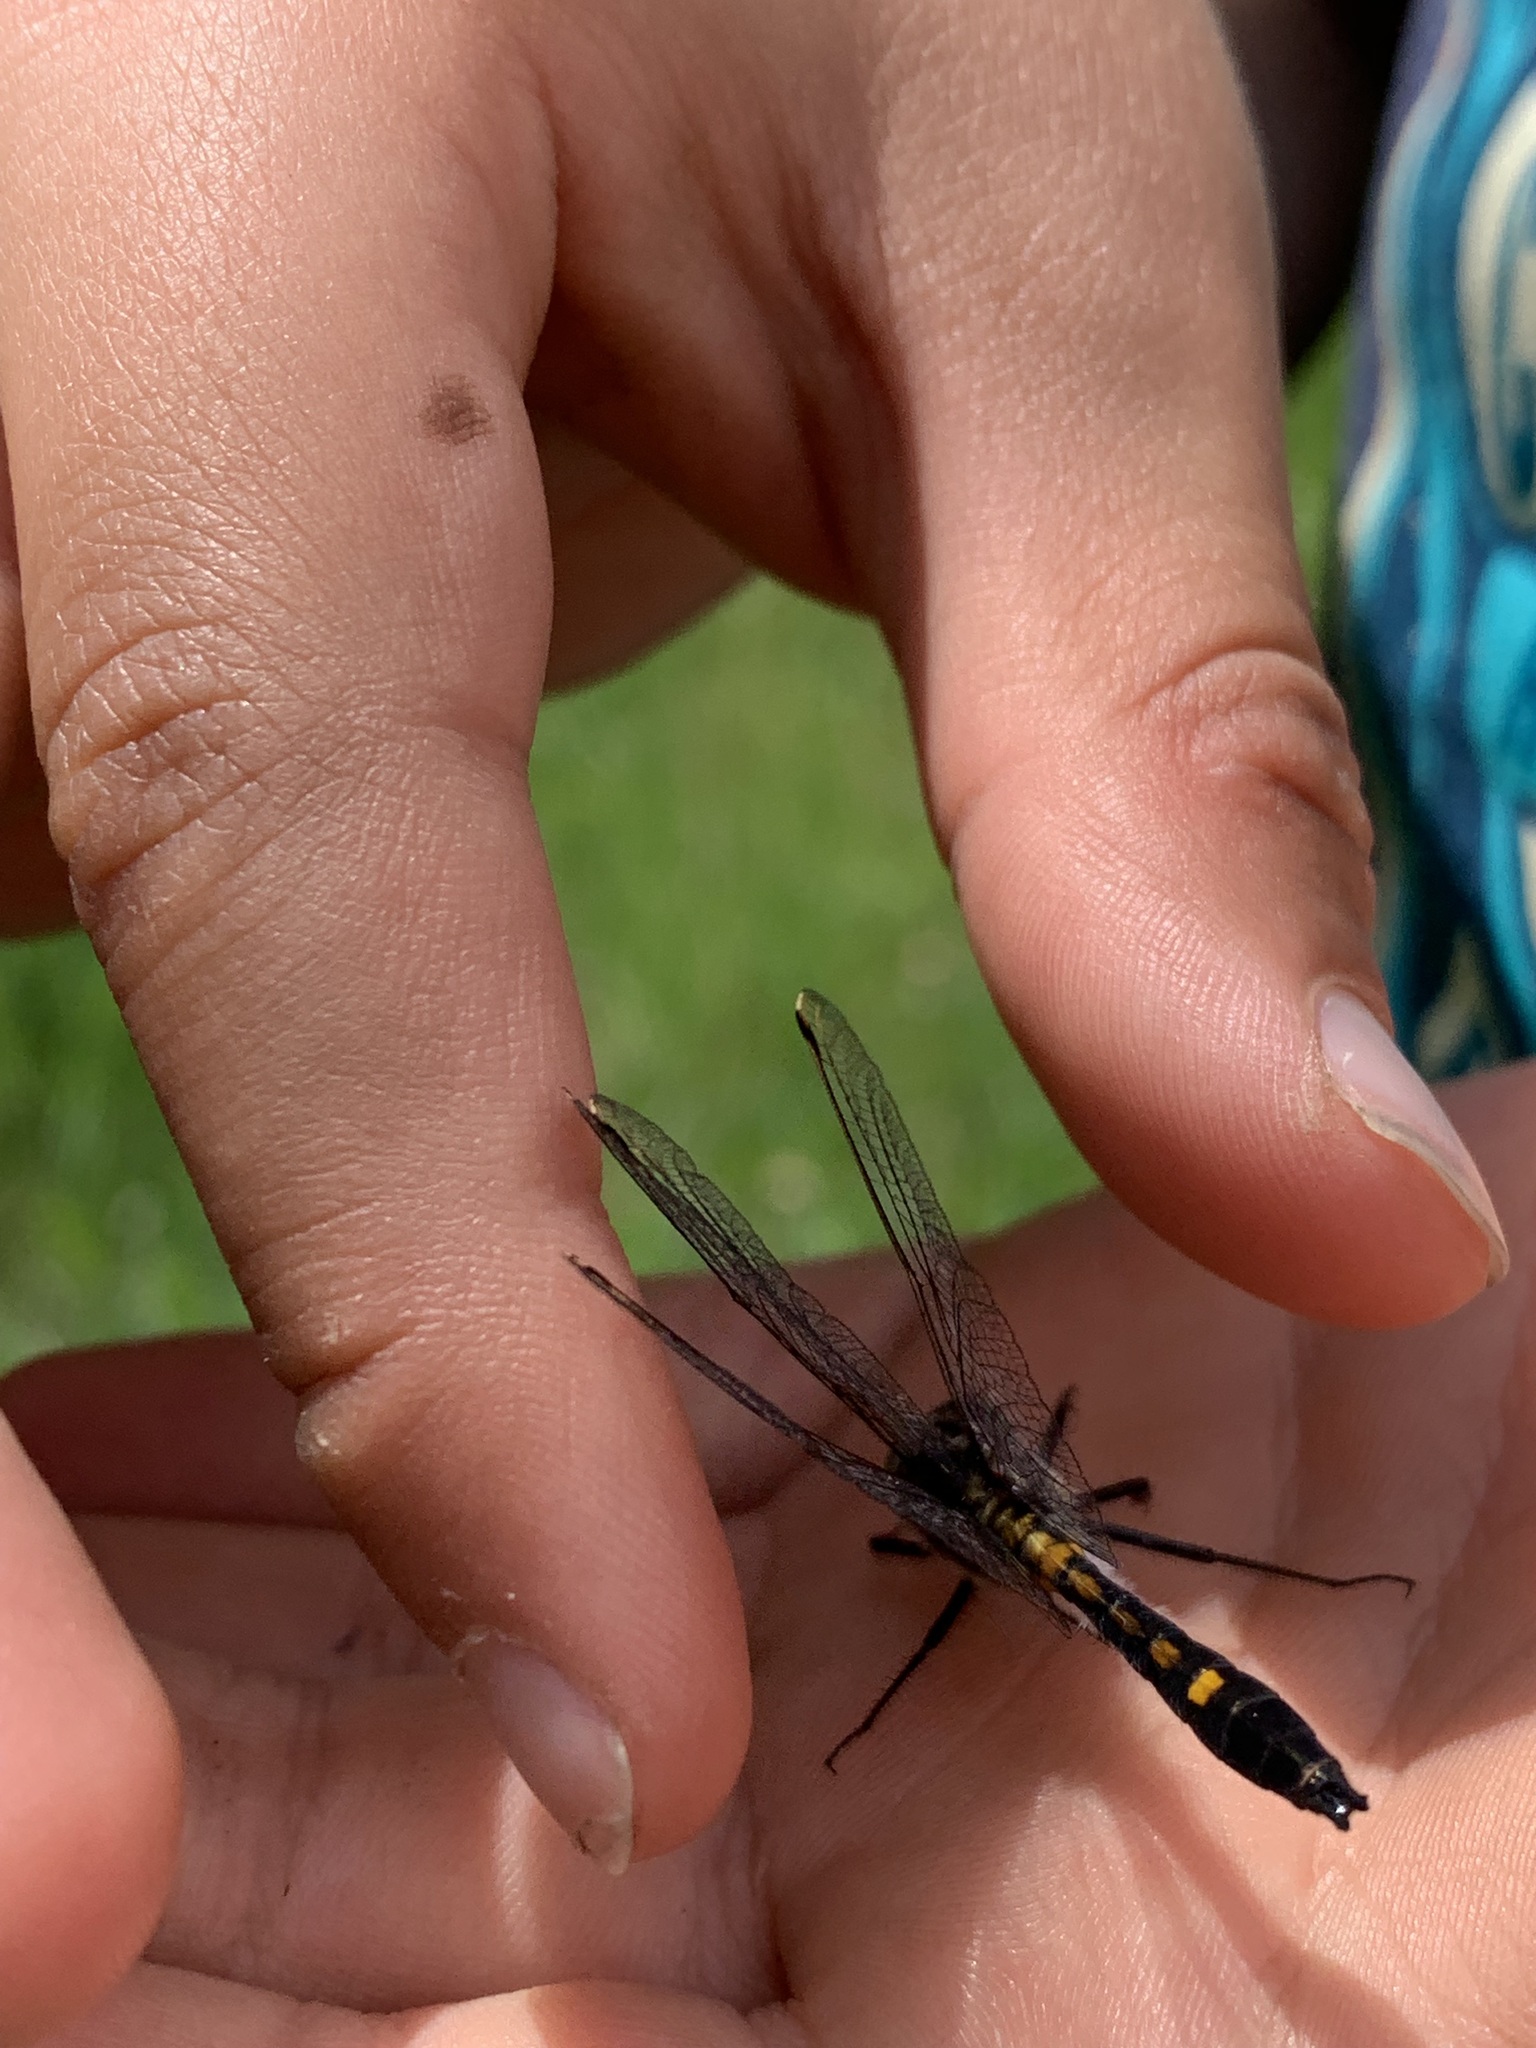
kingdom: Animalia
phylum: Arthropoda
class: Insecta
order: Odonata
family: Libellulidae
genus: Leucorrhinia
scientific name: Leucorrhinia intacta
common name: Dot-tailed whiteface
